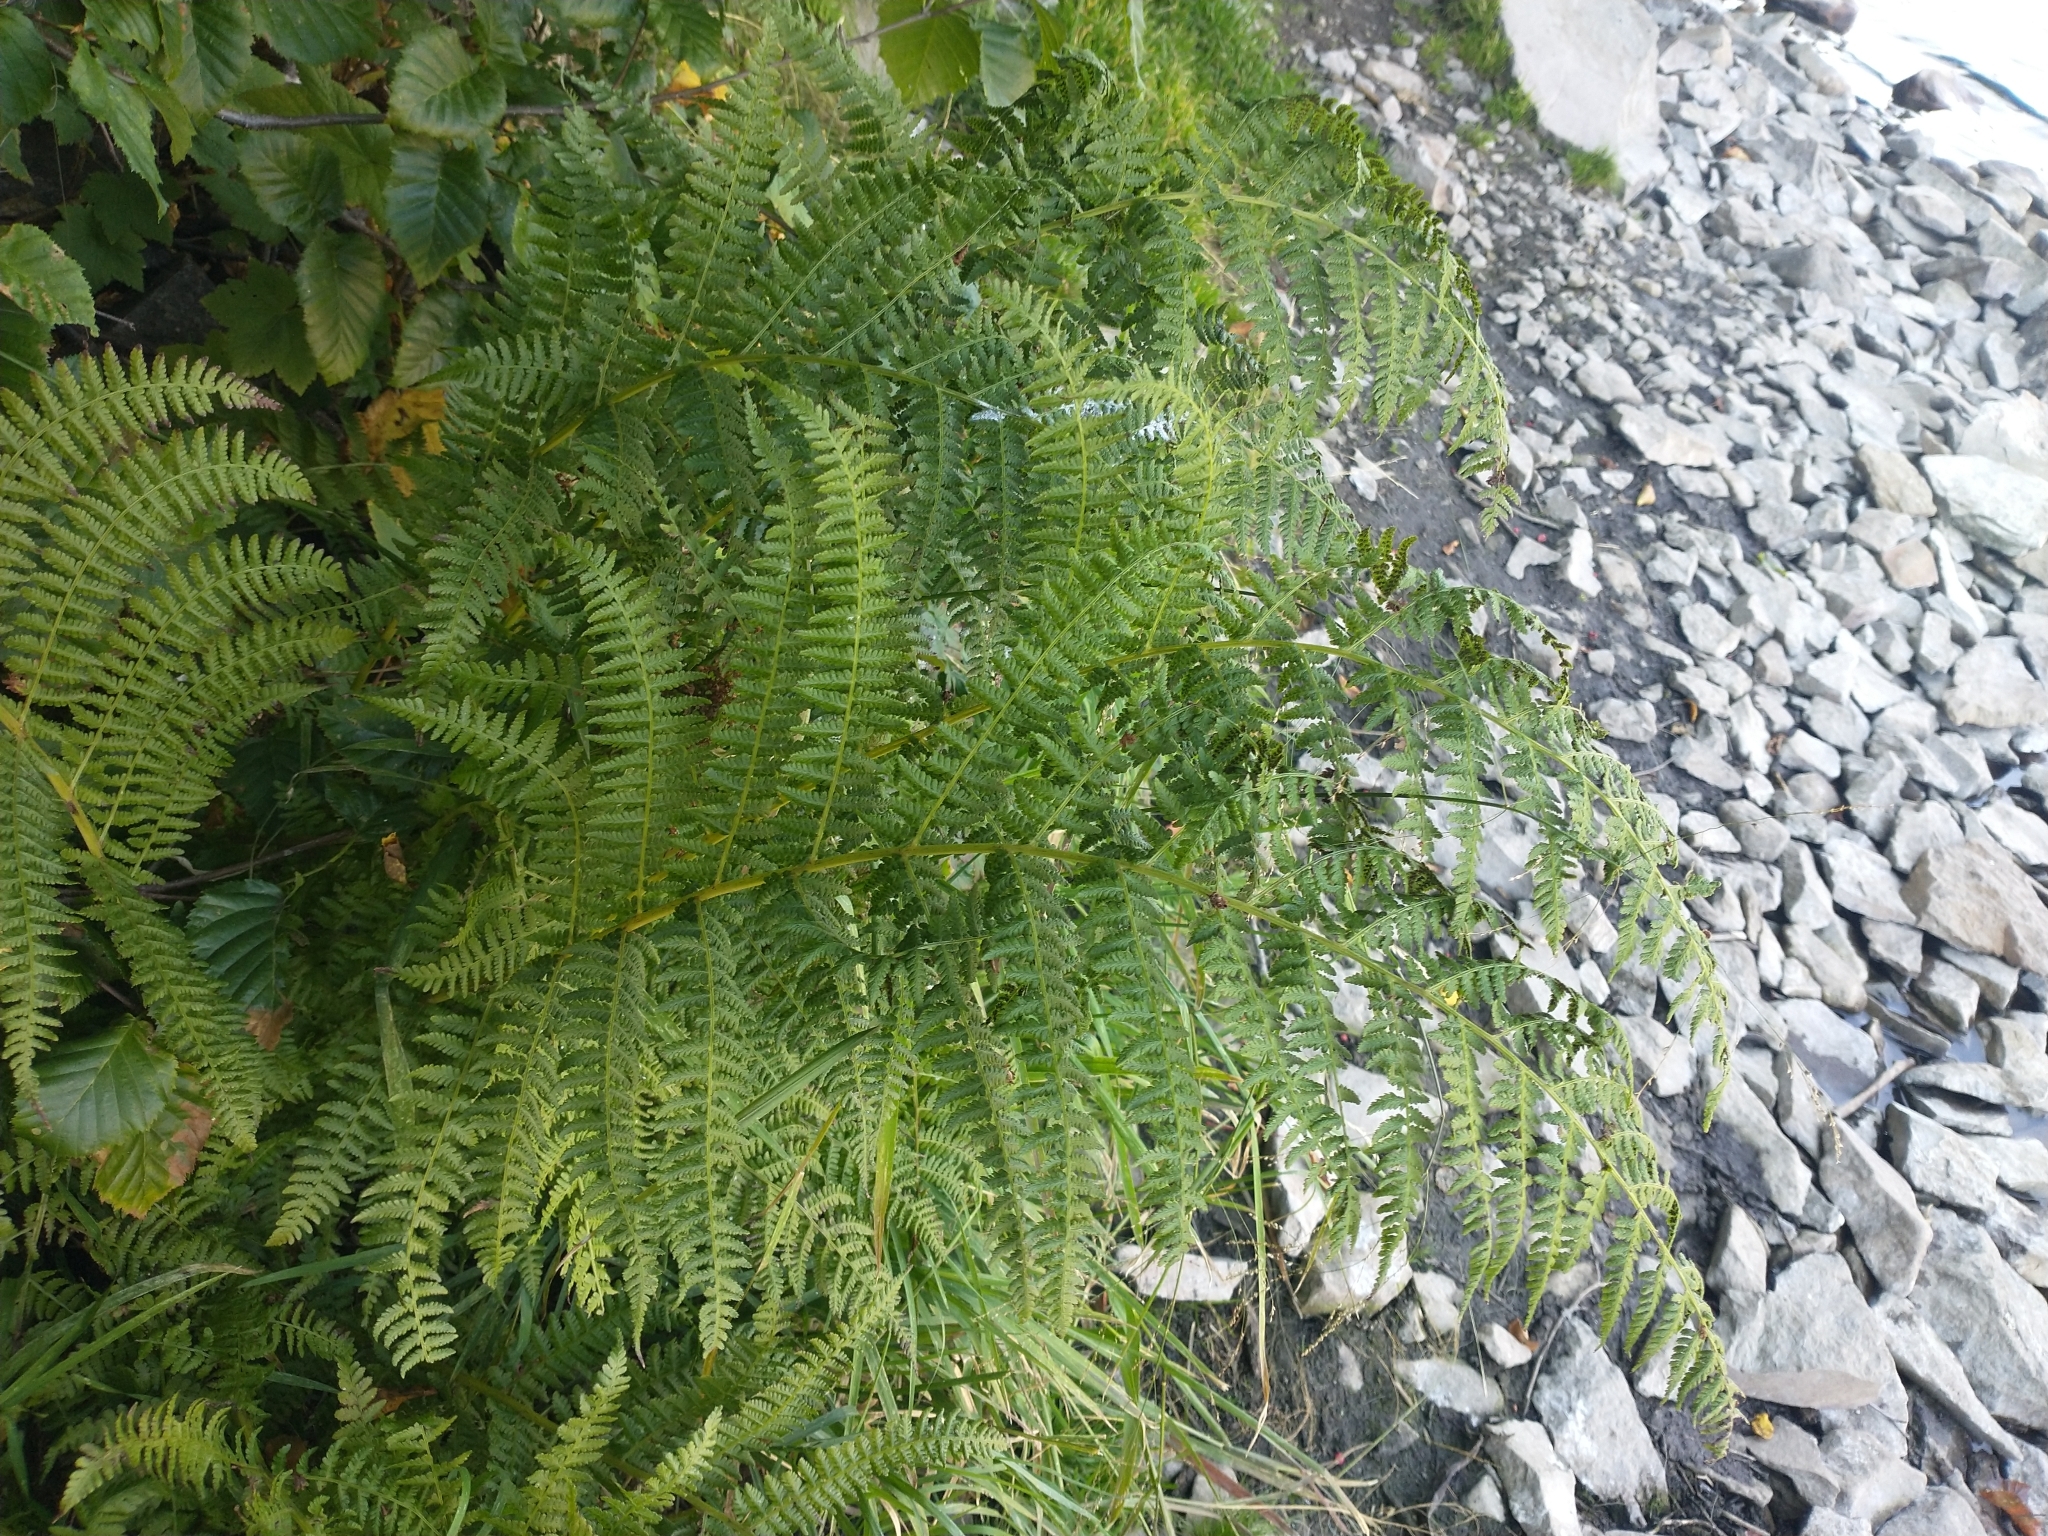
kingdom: Plantae
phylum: Tracheophyta
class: Polypodiopsida
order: Polypodiales
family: Athyriaceae
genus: Athyrium
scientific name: Athyrium cyclosorum
